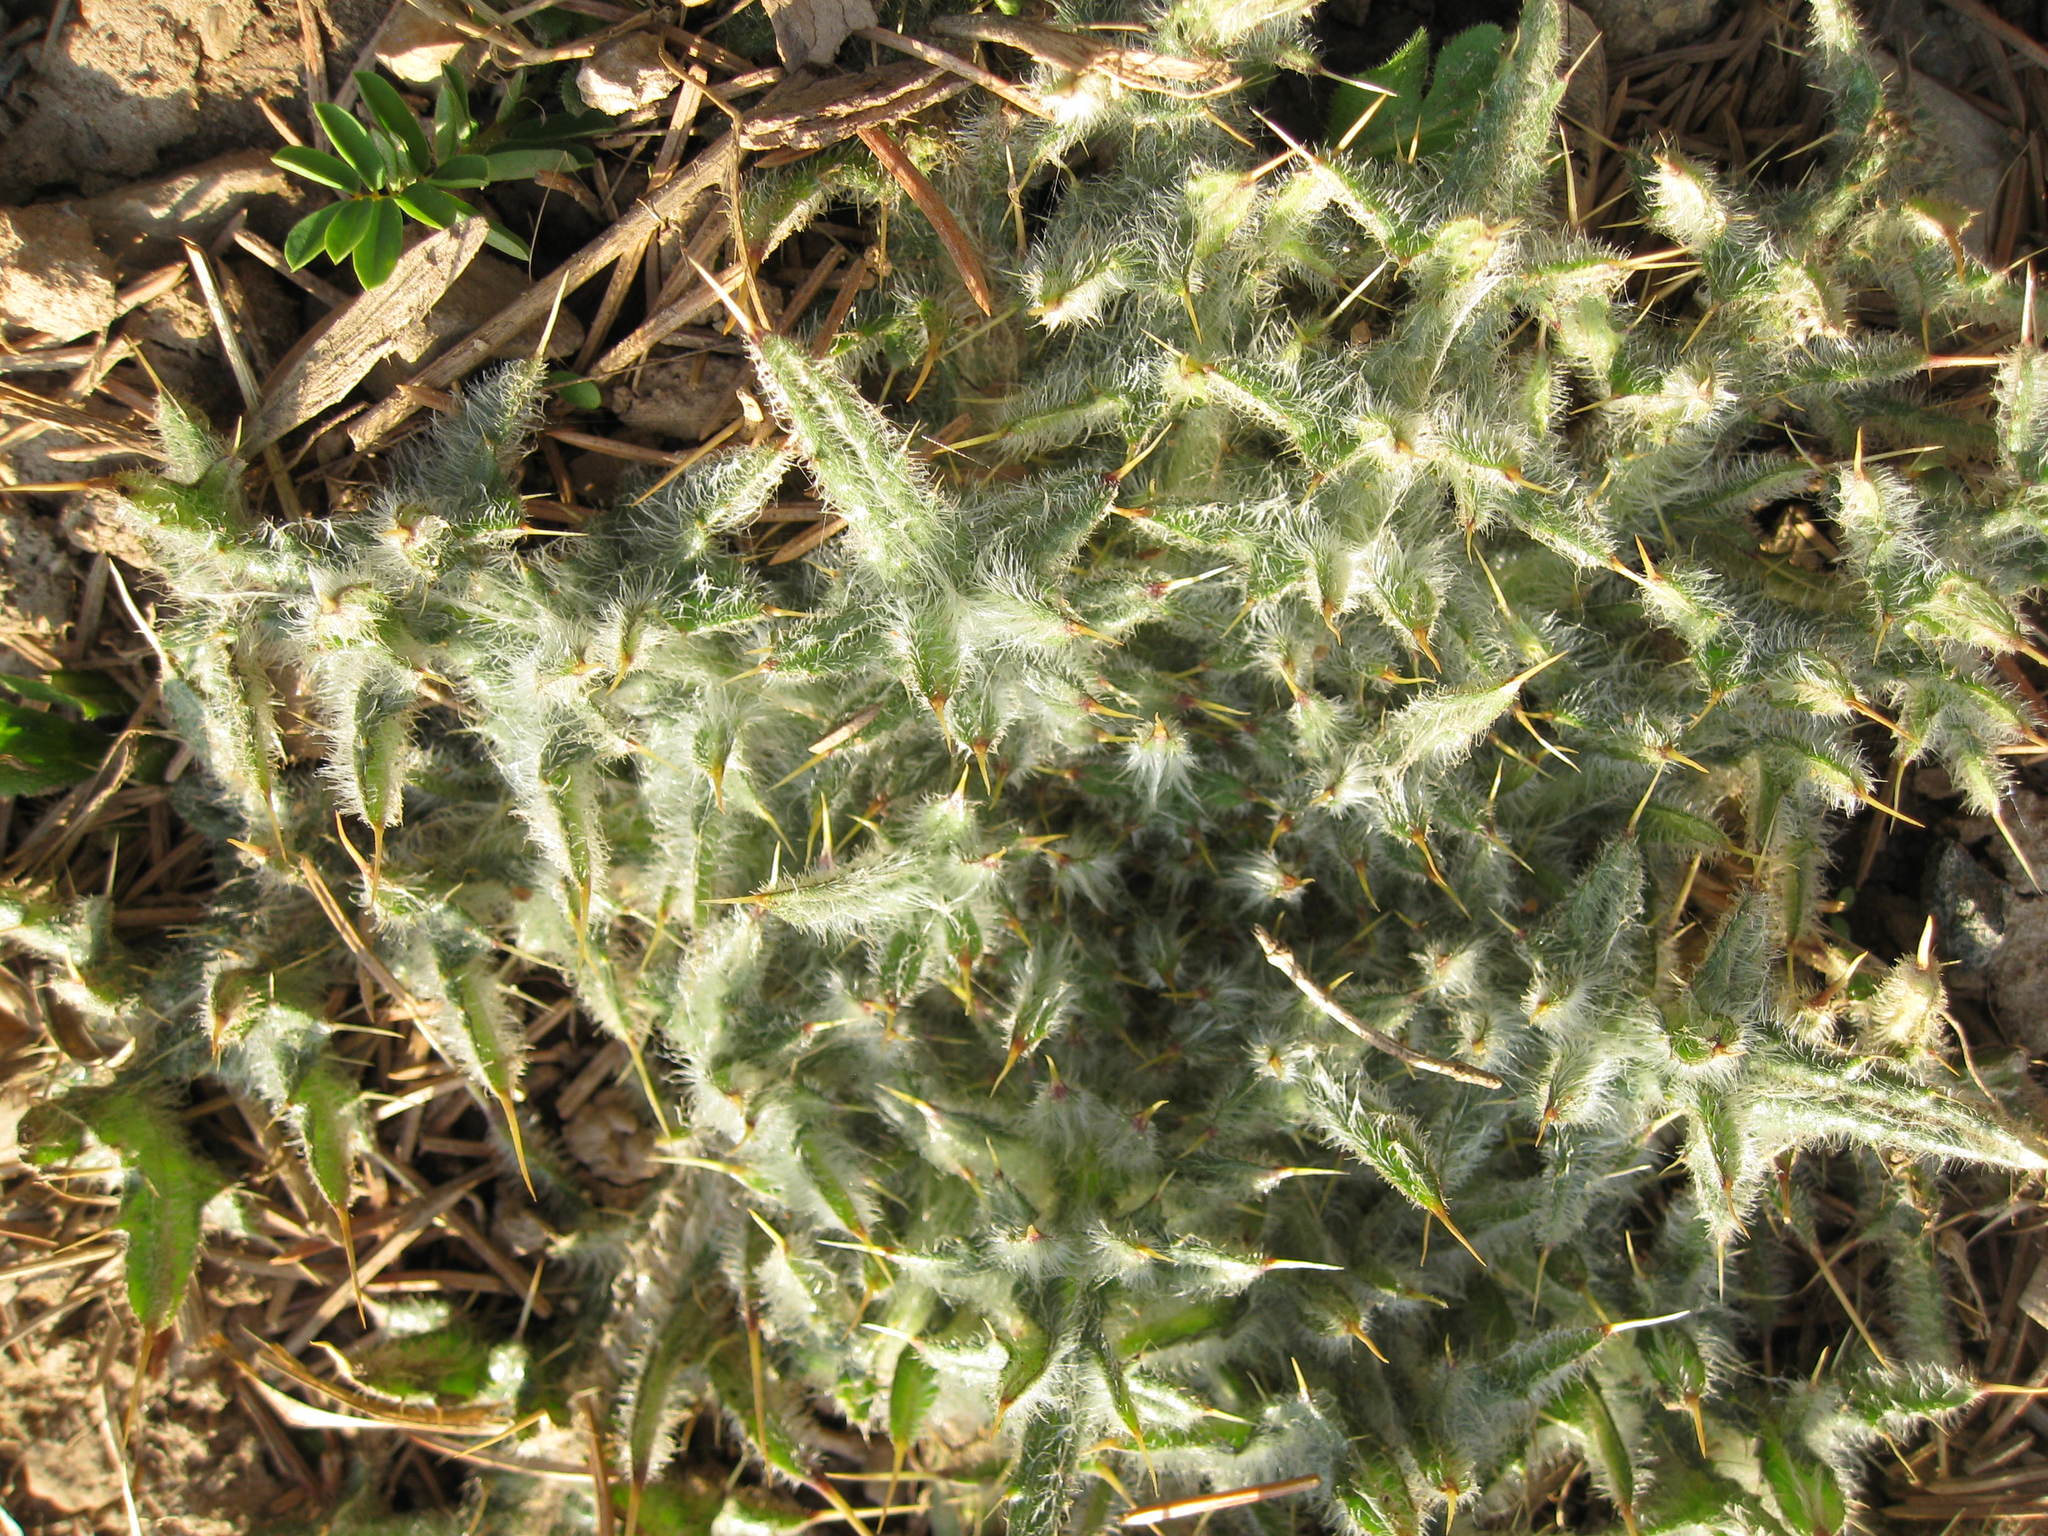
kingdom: Plantae
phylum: Tracheophyta
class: Magnoliopsida
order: Asterales
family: Asteraceae
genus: Cirsium
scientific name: Cirsium vulgare
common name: Bull thistle
